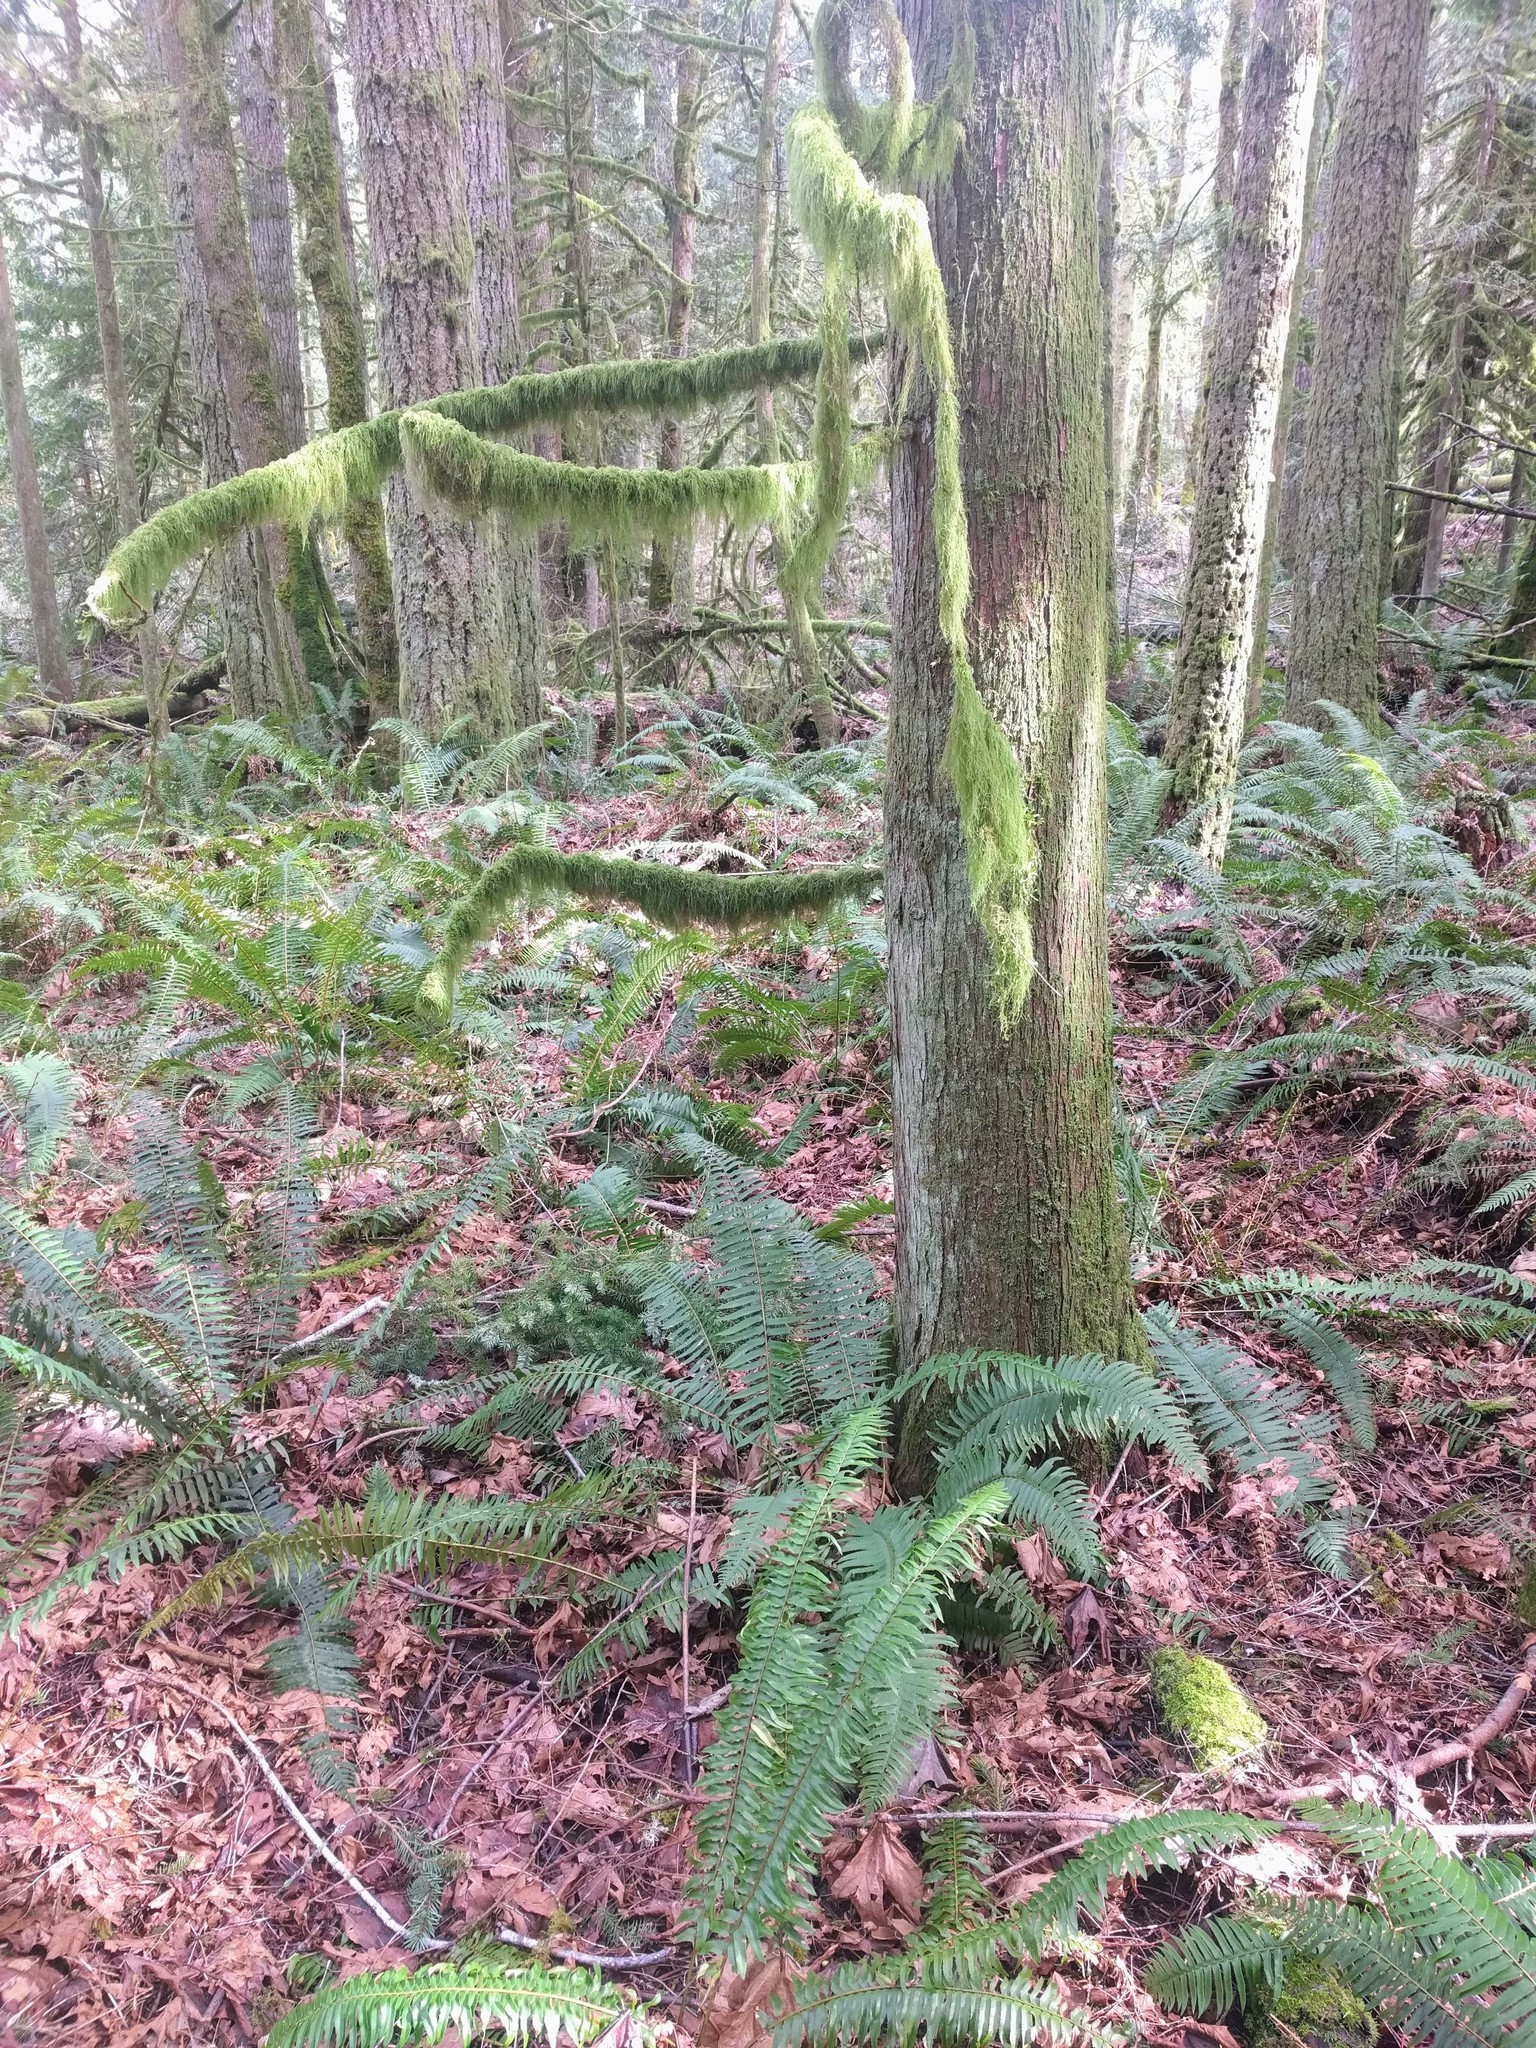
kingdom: Plantae
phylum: Tracheophyta
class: Polypodiopsida
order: Polypodiales
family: Dryopteridaceae
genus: Polystichum
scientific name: Polystichum munitum
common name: Western sword-fern
